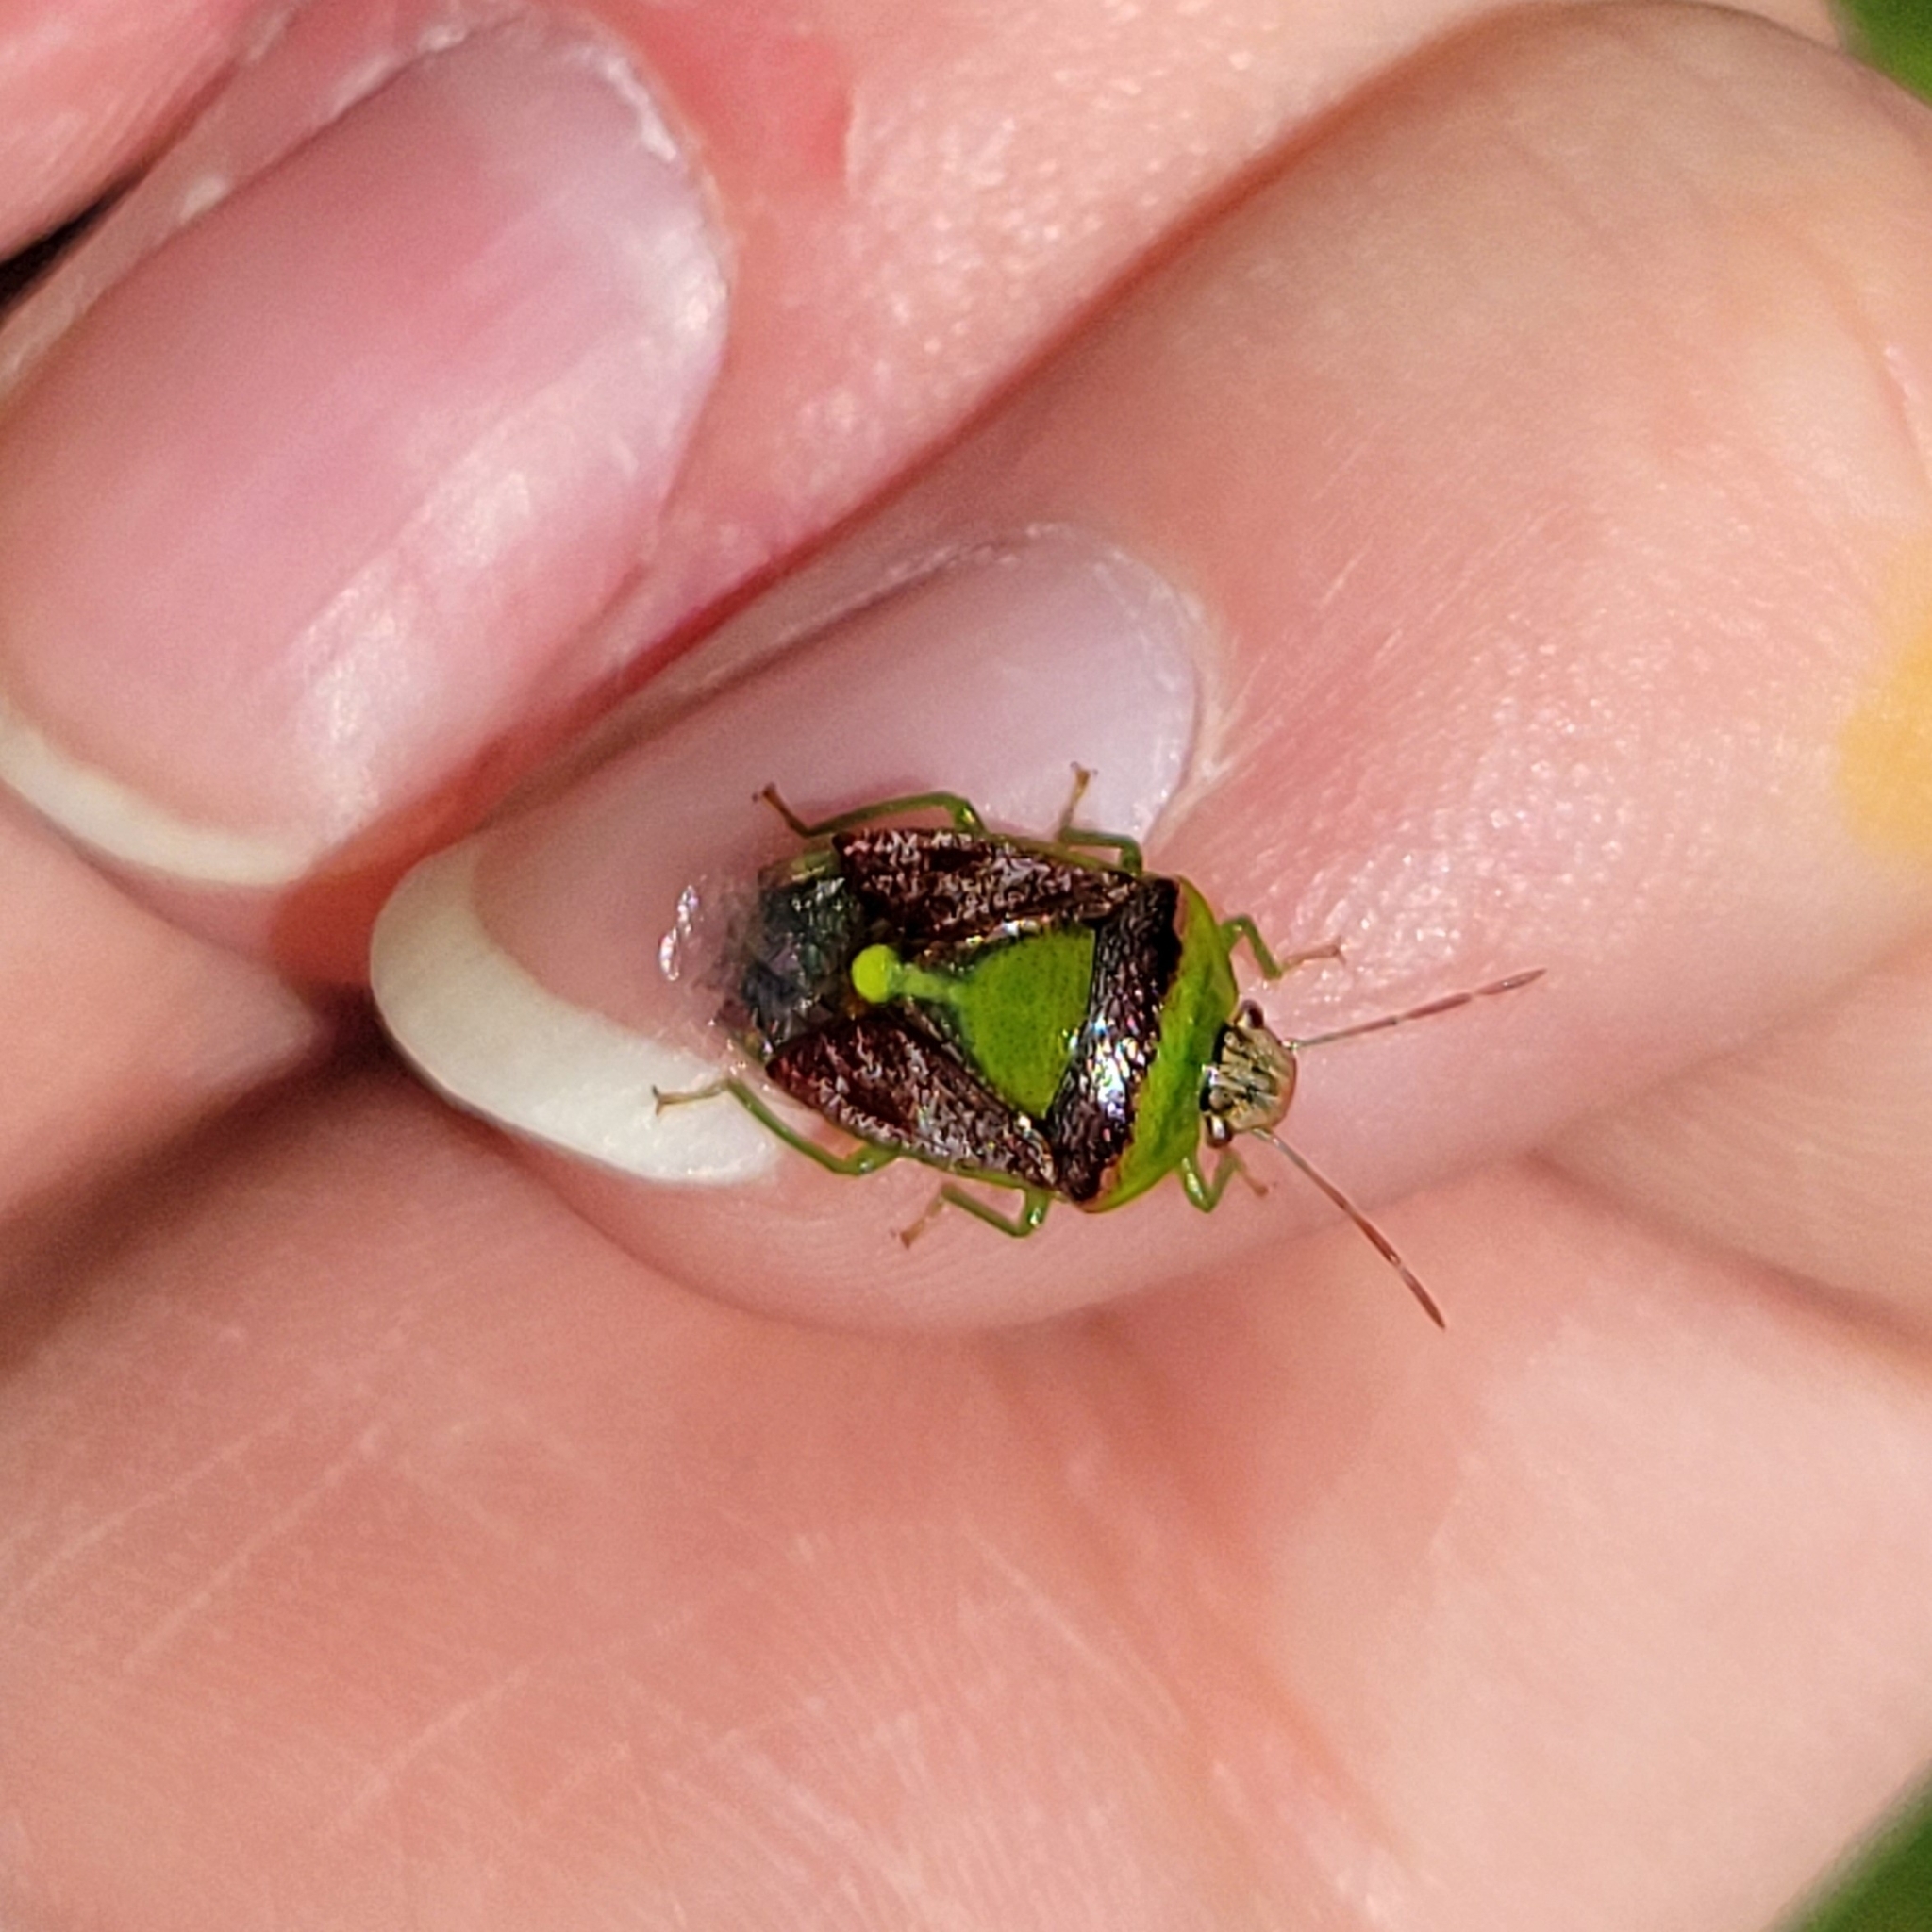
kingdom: Animalia
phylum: Arthropoda
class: Insecta
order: Hemiptera
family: Pentatomidae
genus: Banasa
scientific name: Banasa dimidiata
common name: Green burgundy stink bug
